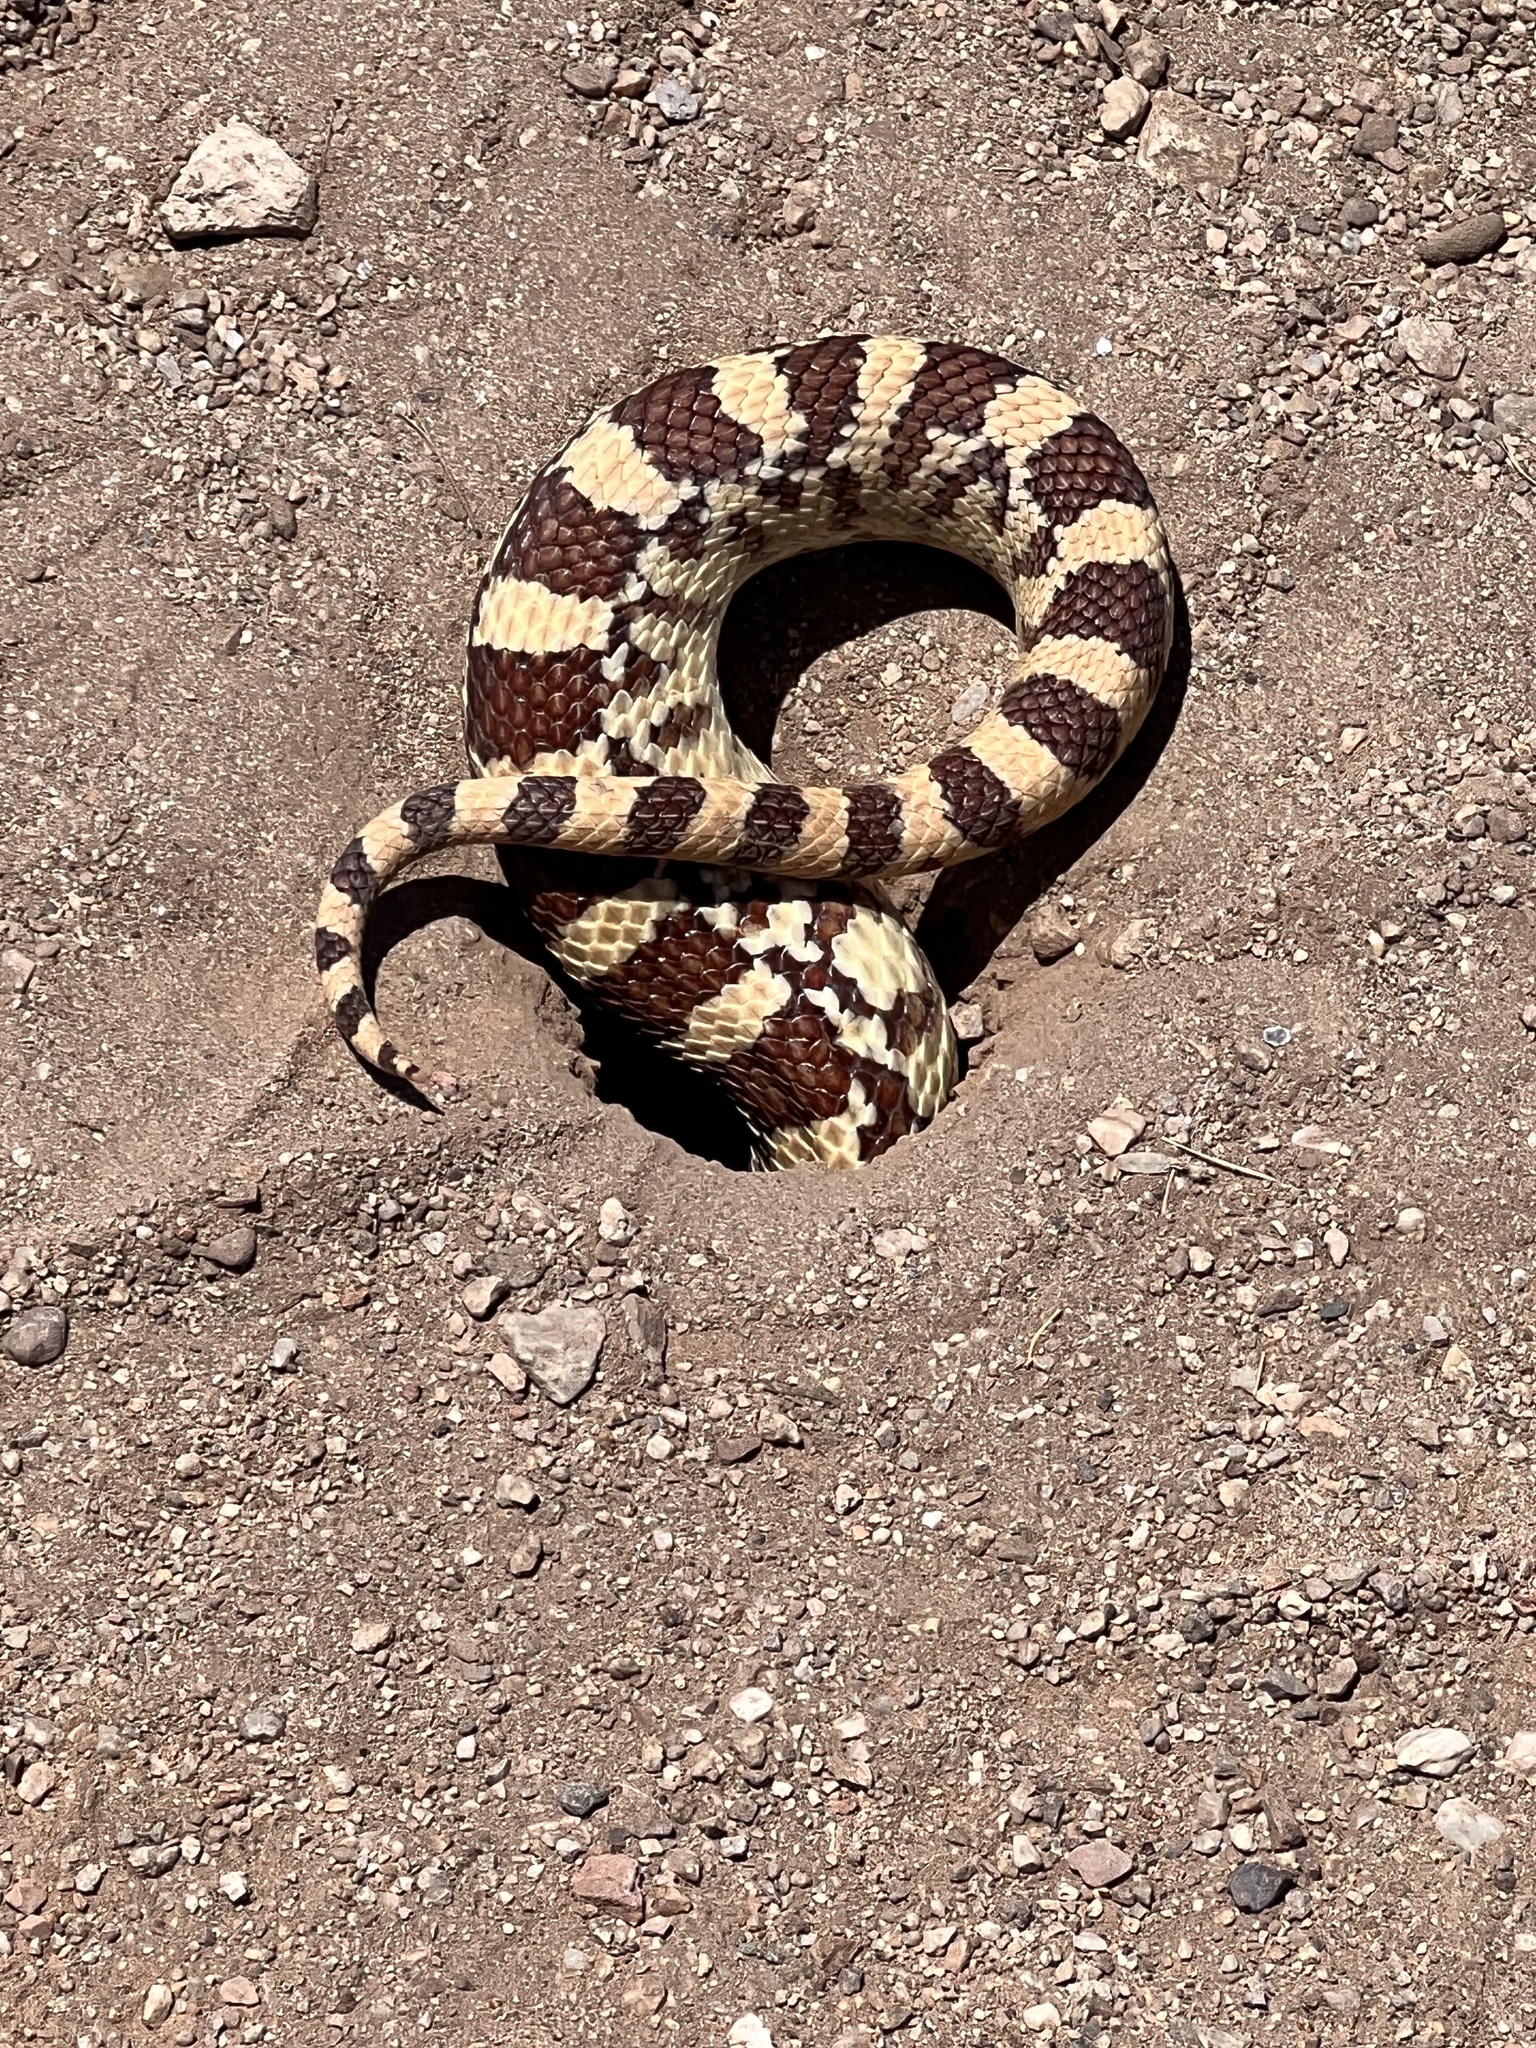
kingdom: Animalia
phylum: Chordata
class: Squamata
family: Colubridae
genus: Pituophis
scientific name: Pituophis catenifer
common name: Gopher snake
